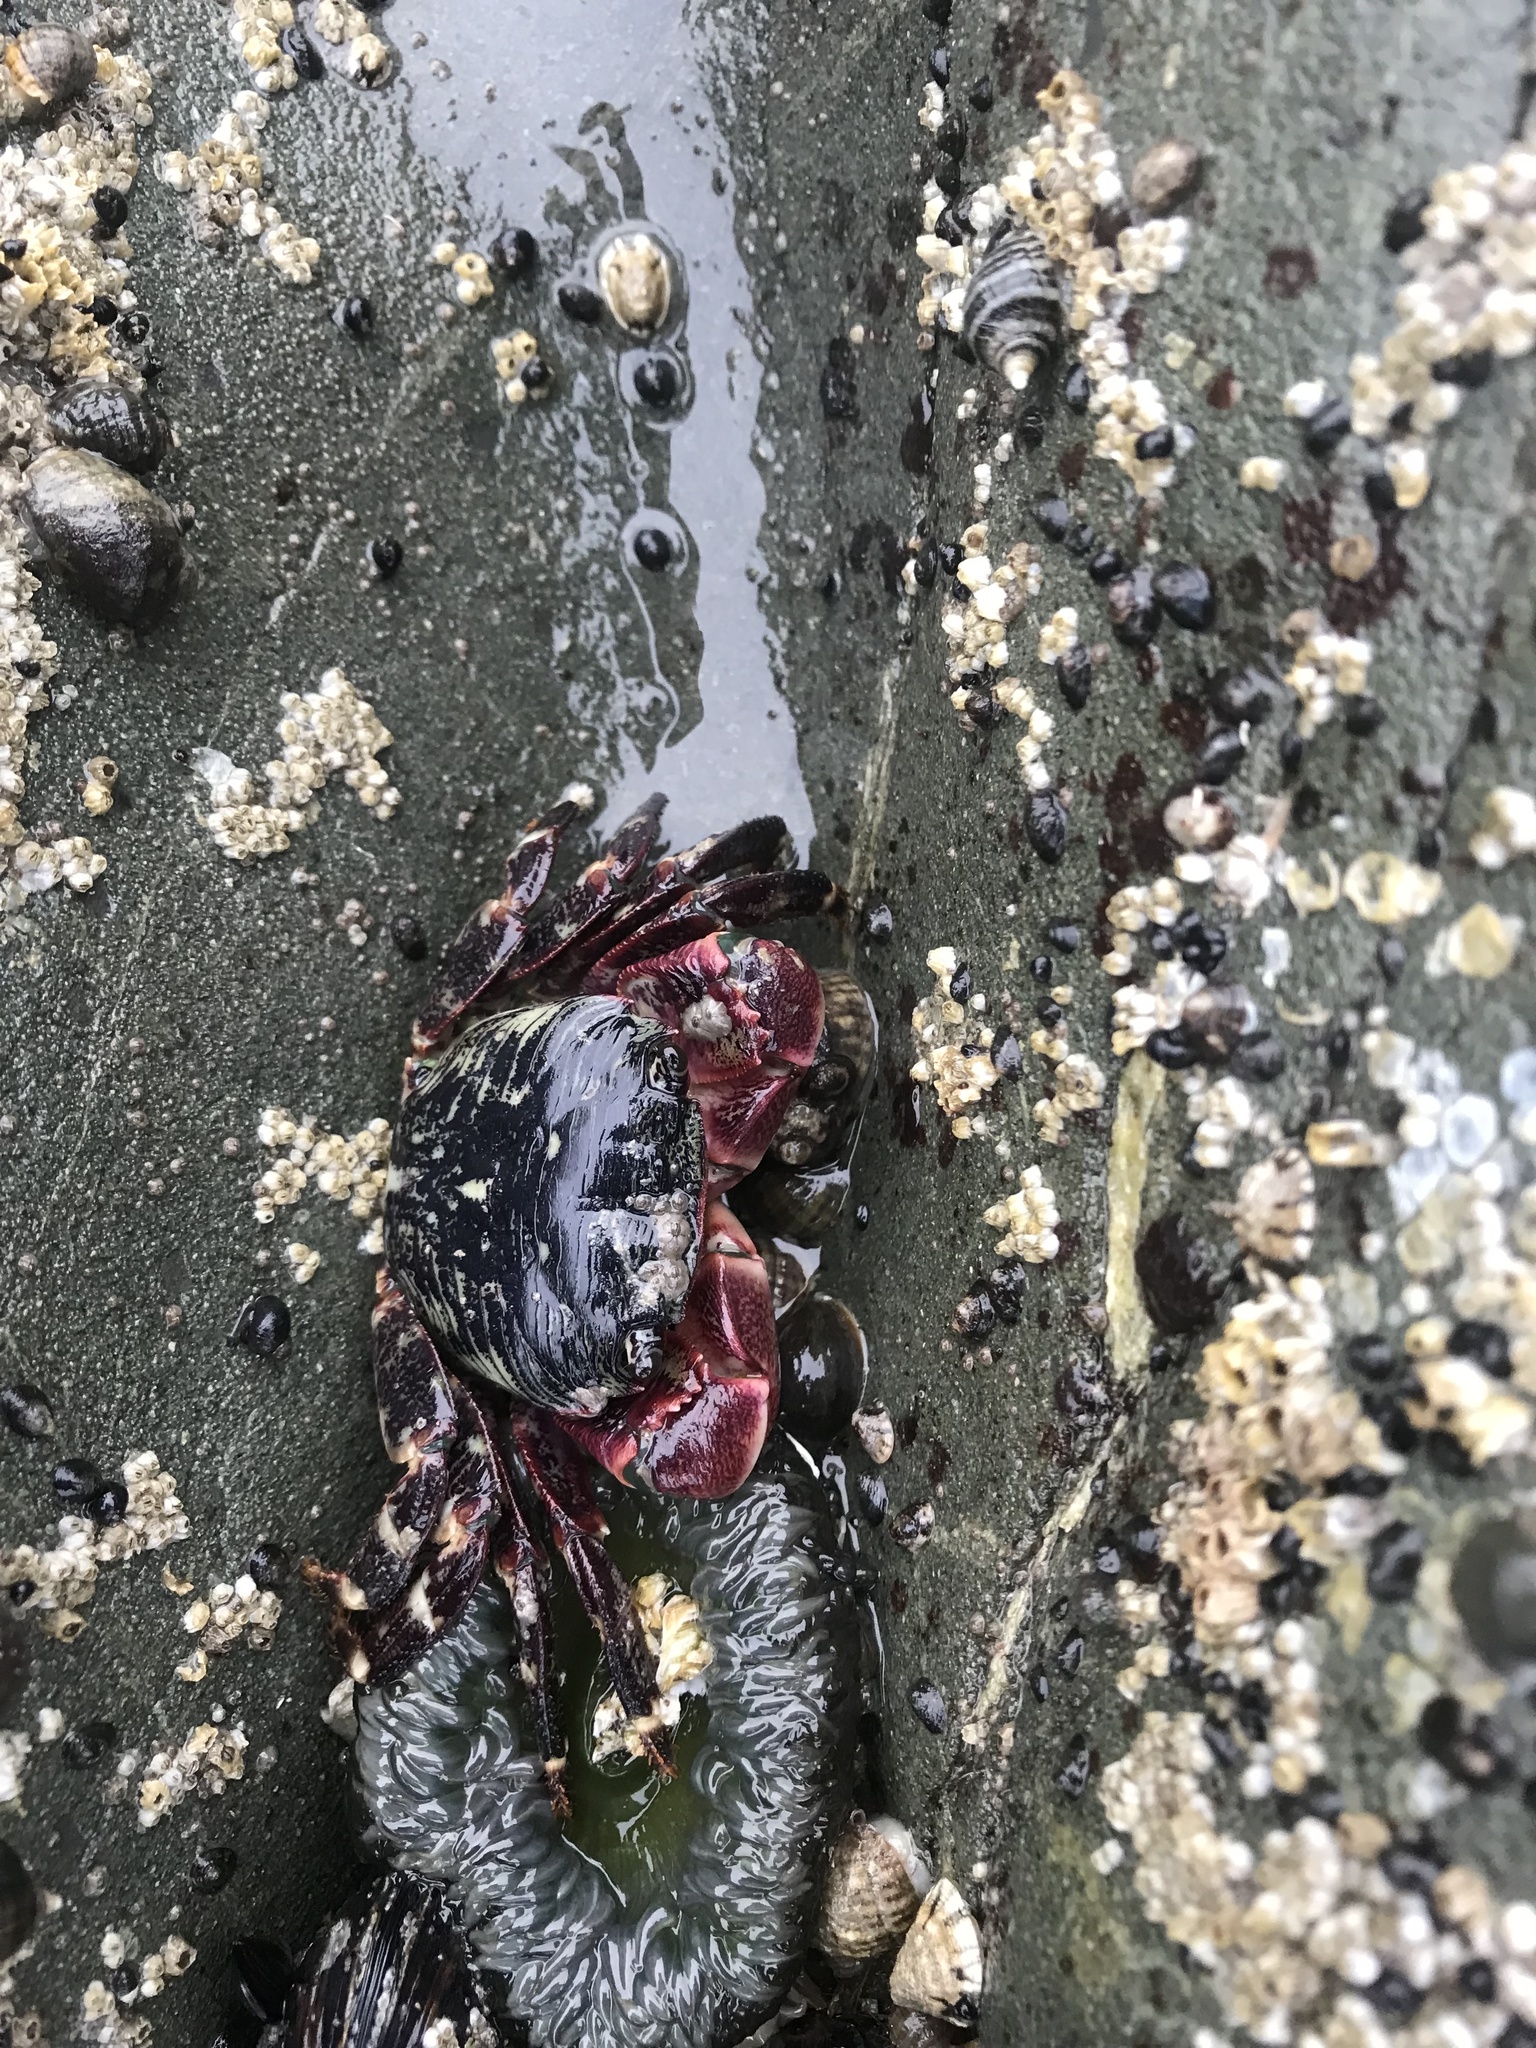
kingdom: Animalia
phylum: Arthropoda
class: Malacostraca
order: Decapoda
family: Grapsidae
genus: Pachygrapsus
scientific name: Pachygrapsus crassipes
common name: Striped shore crab
